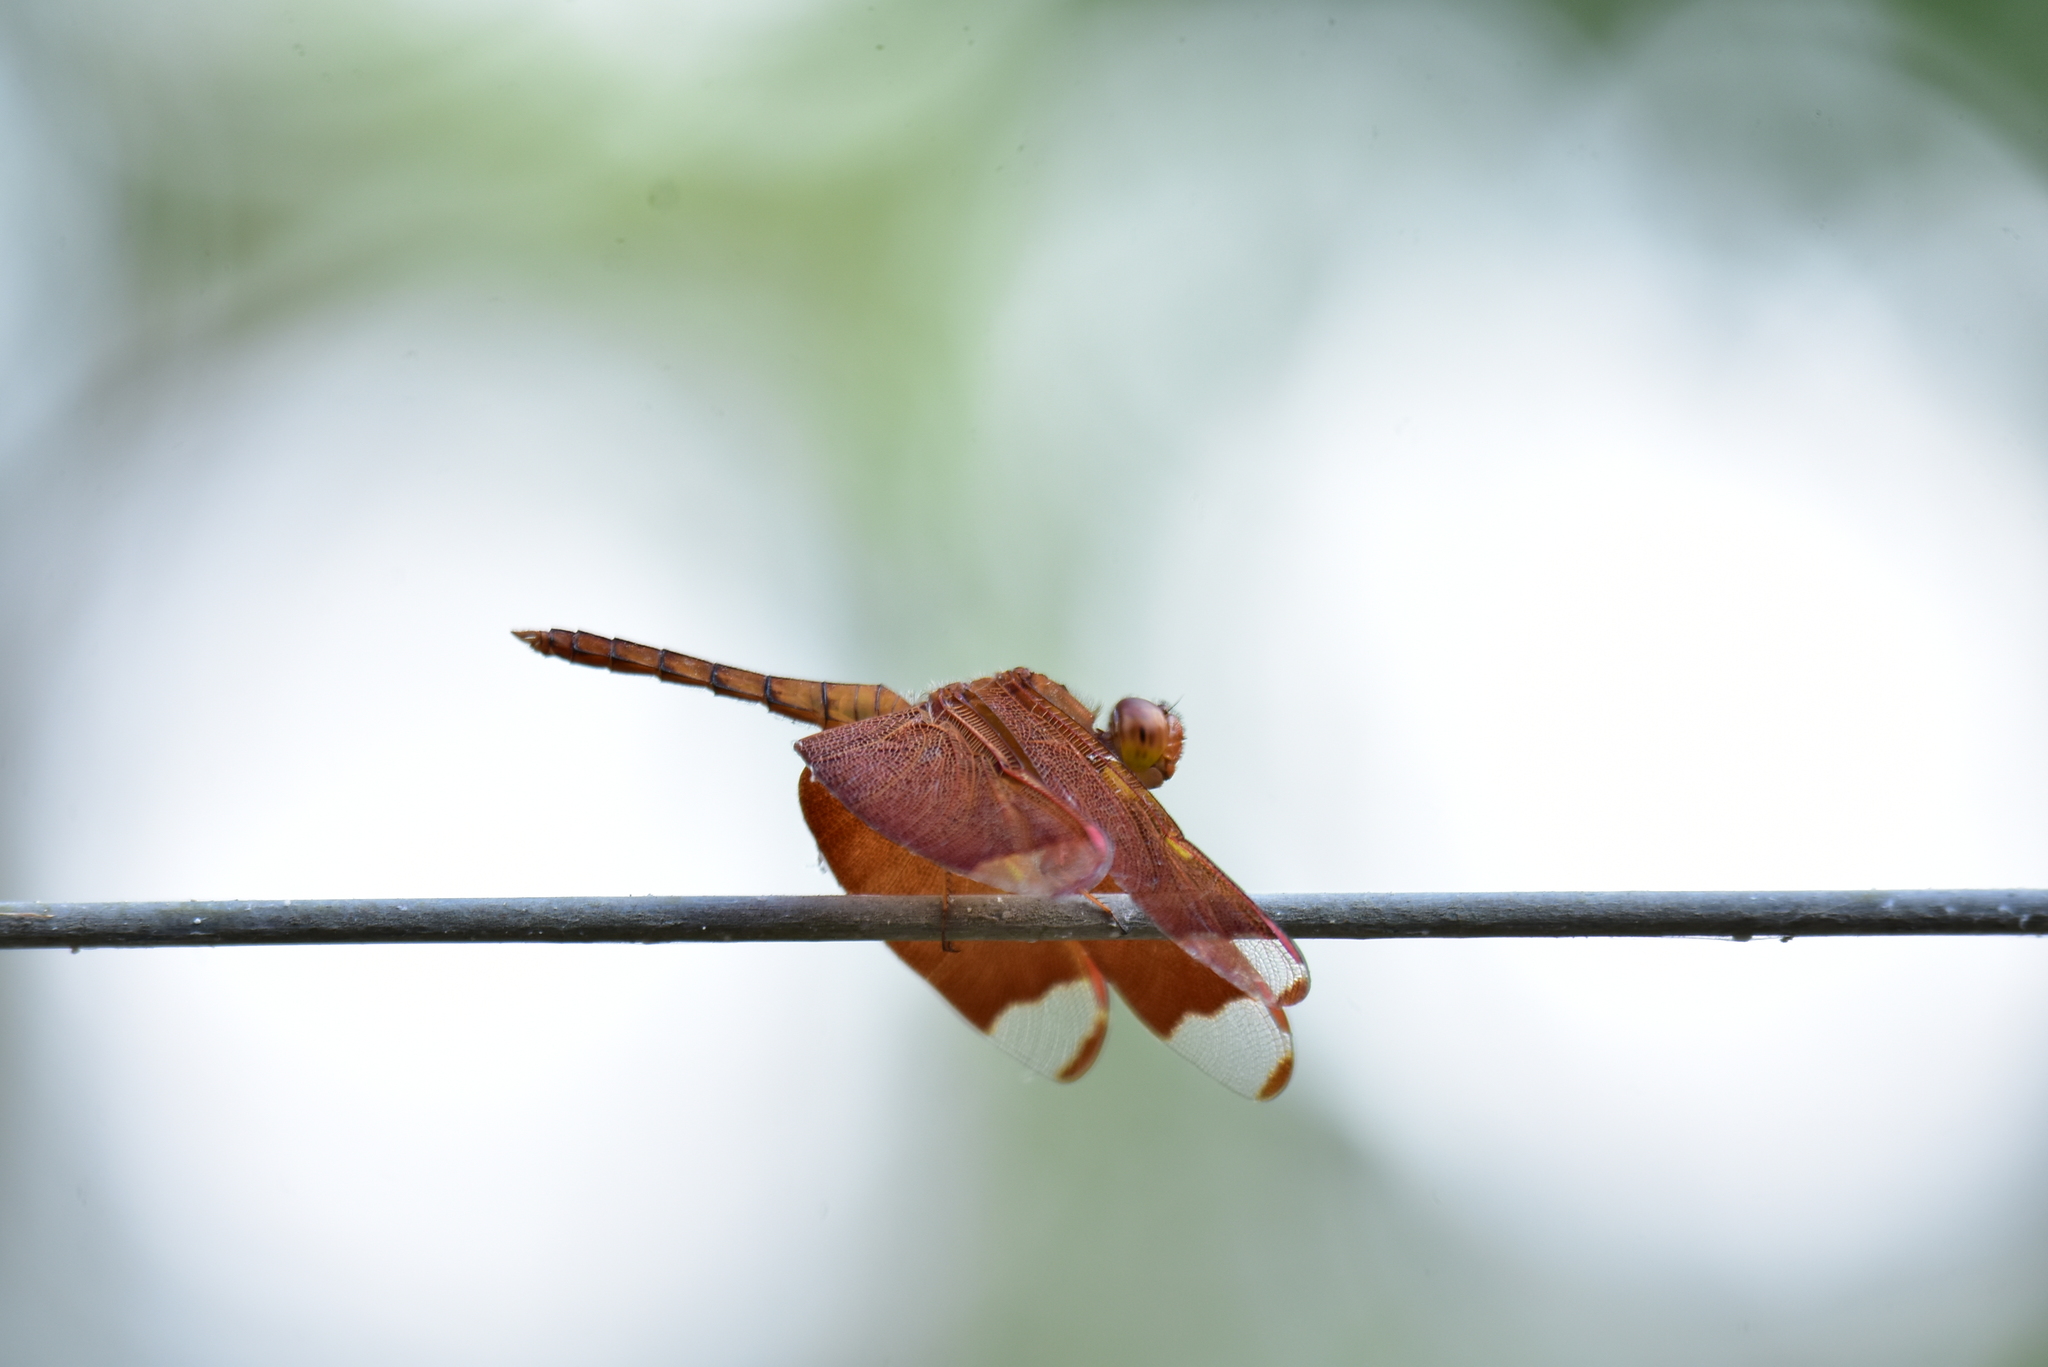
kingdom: Animalia
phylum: Arthropoda
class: Insecta
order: Odonata
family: Libellulidae
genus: Neurothemis
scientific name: Neurothemis fulvia
